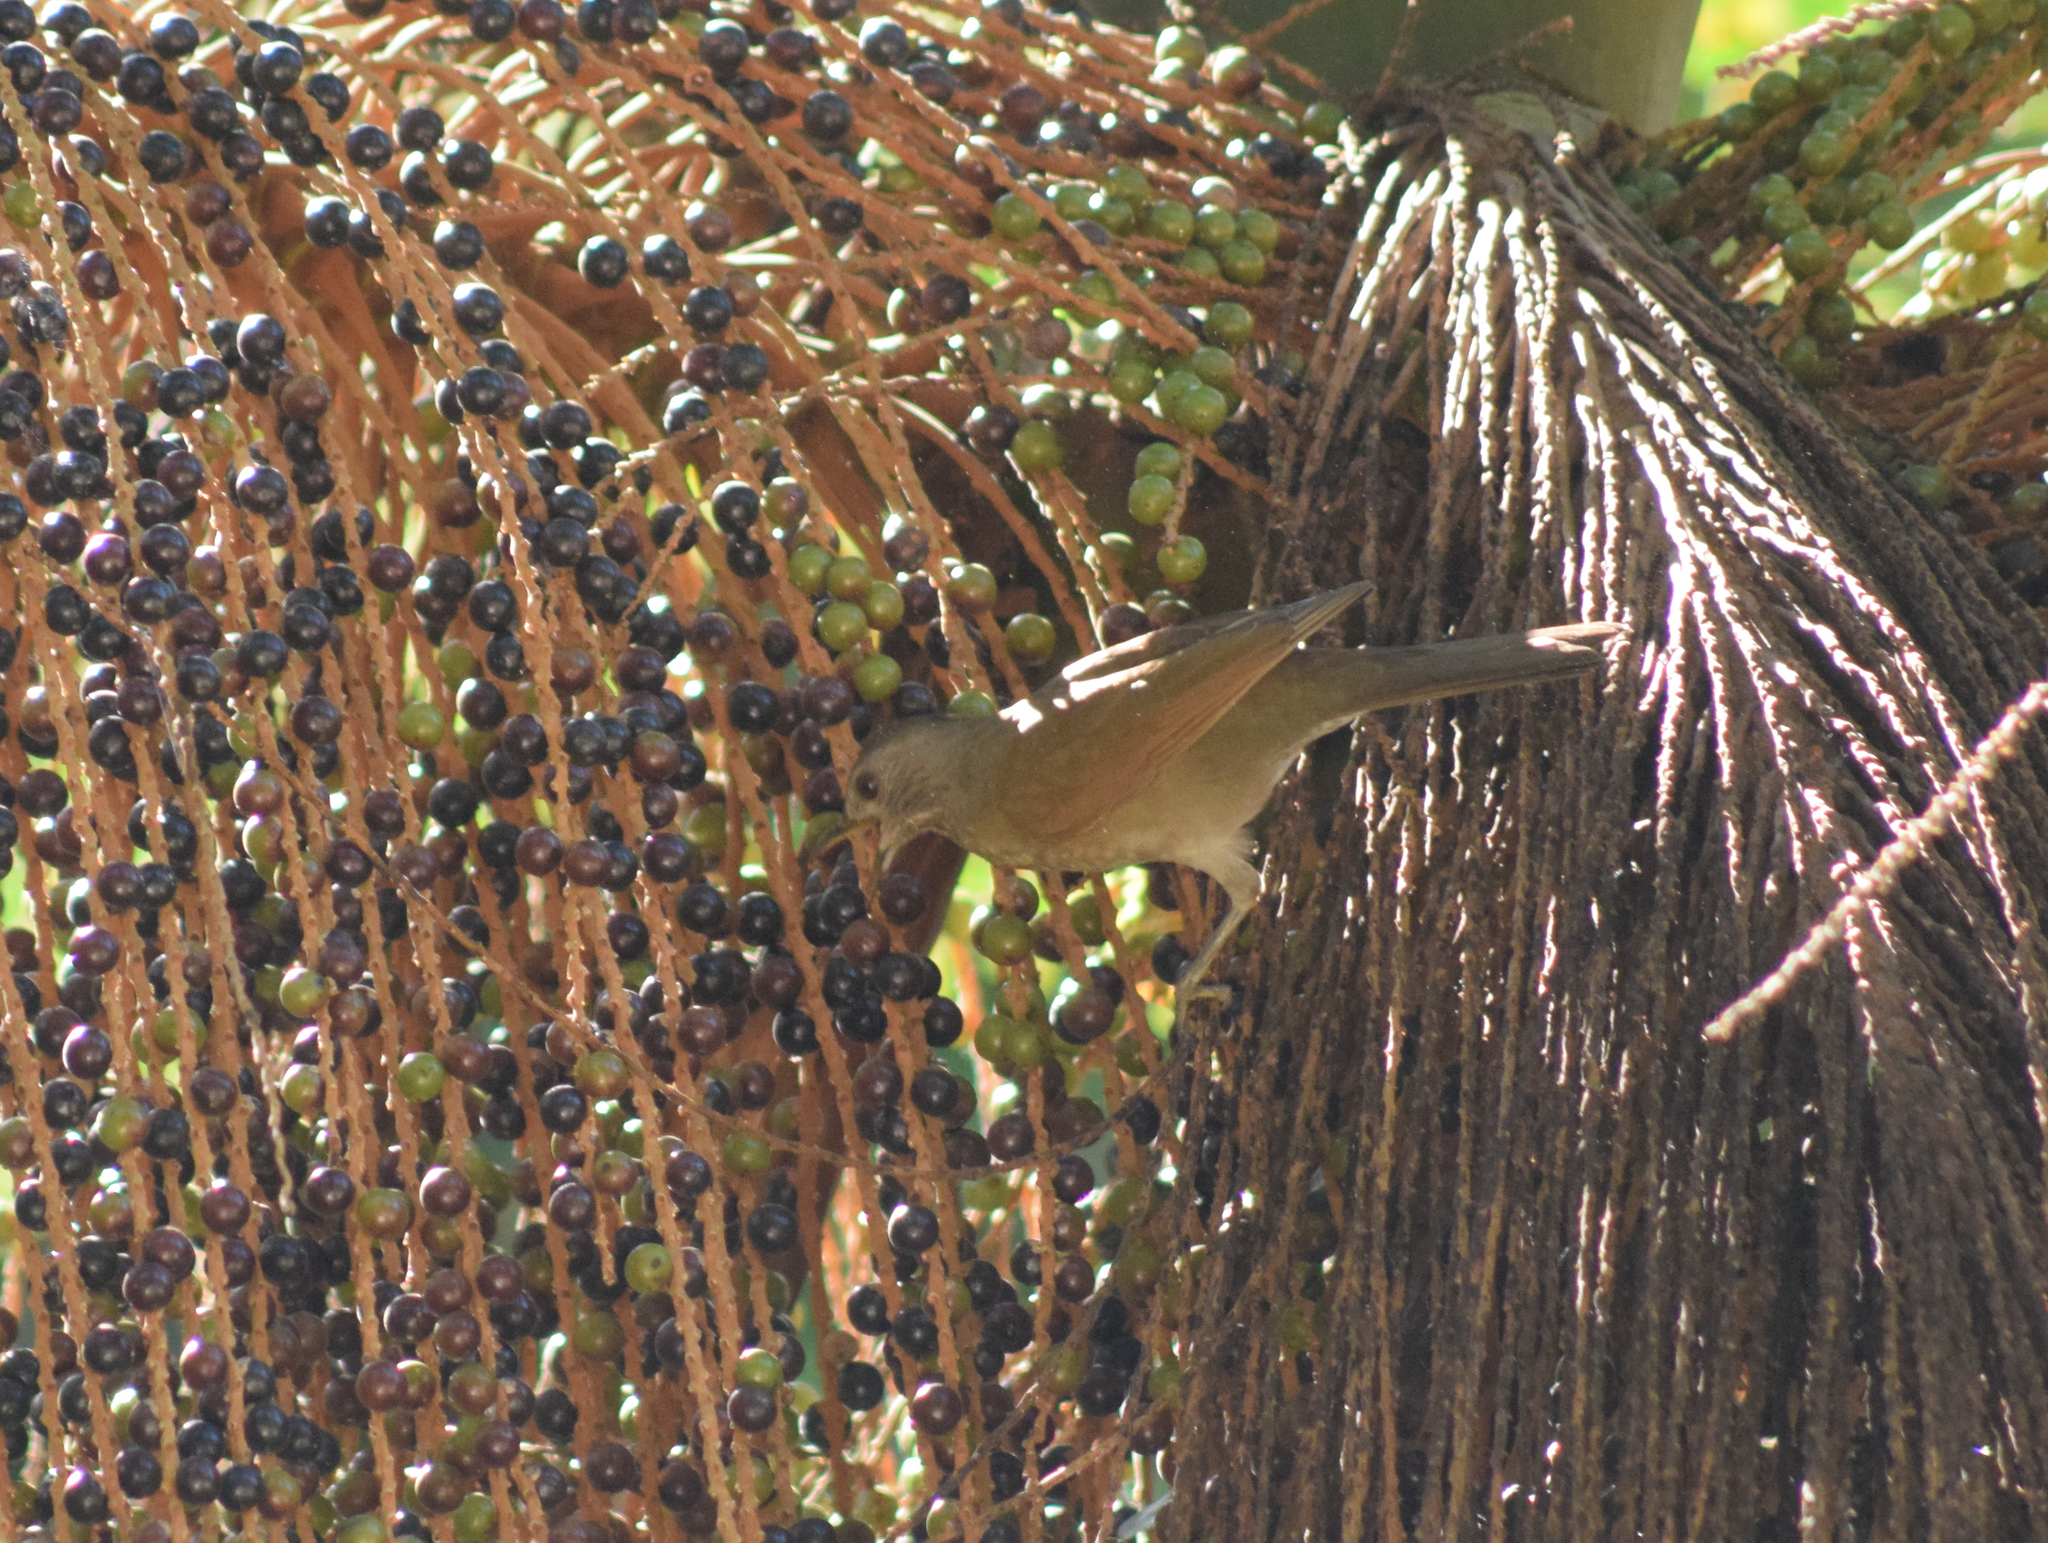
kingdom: Animalia
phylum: Chordata
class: Aves
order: Passeriformes
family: Turdidae
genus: Turdus
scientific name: Turdus leucomelas
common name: Pale-breasted thrush
